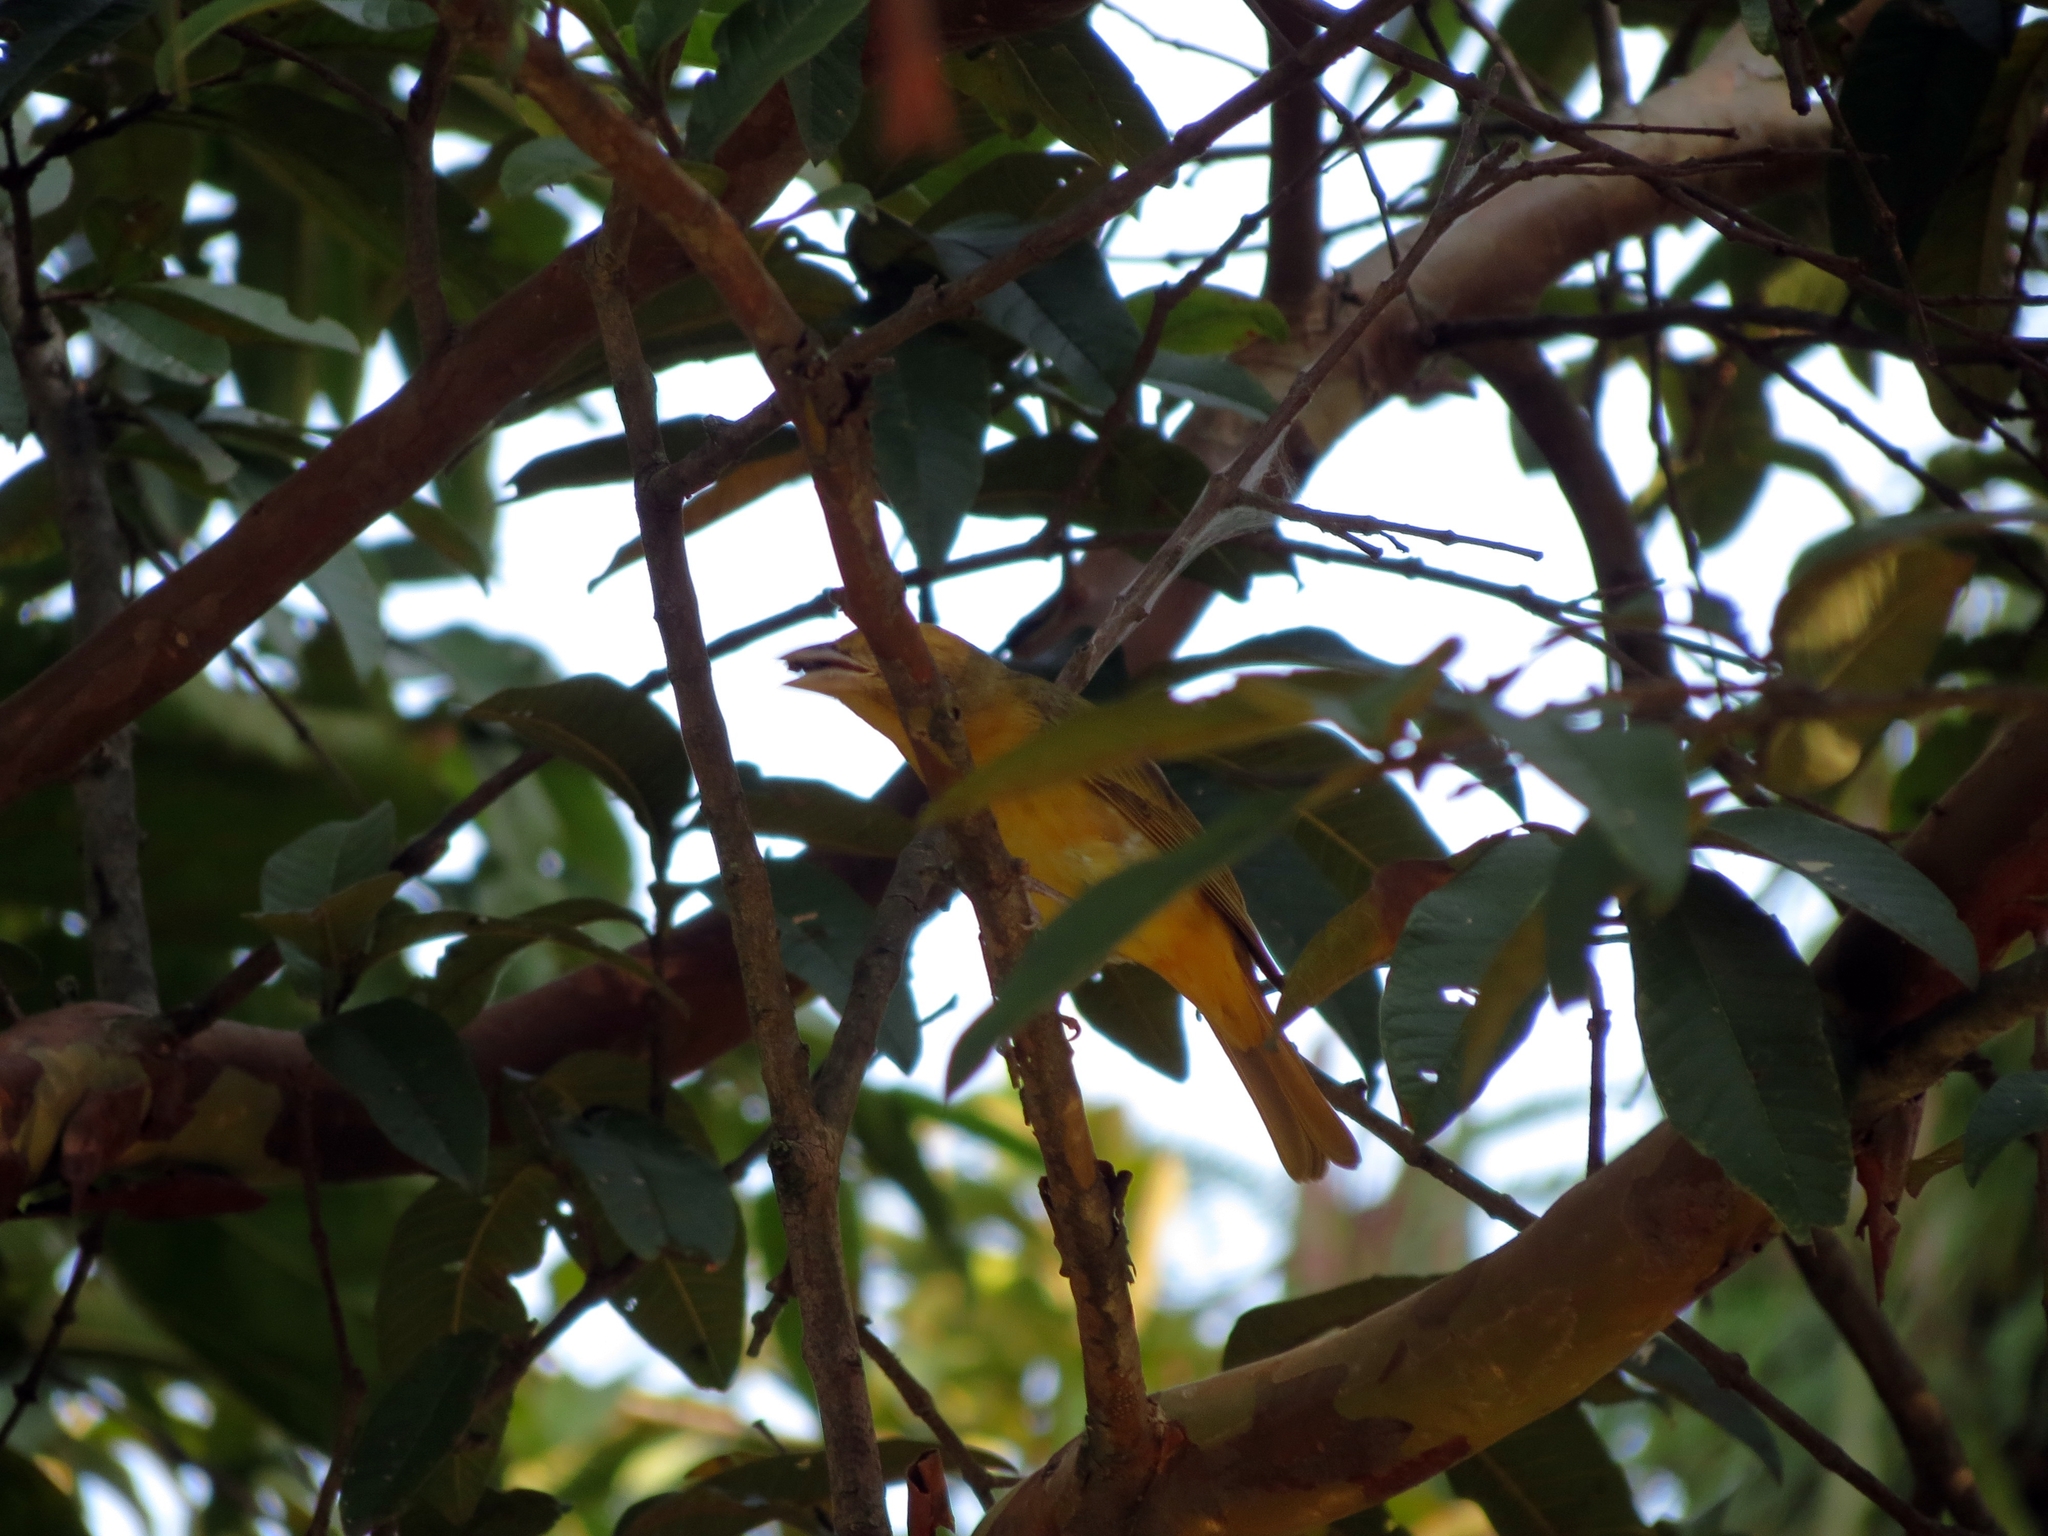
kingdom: Animalia
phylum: Chordata
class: Aves
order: Passeriformes
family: Cardinalidae
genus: Piranga
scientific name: Piranga rubra
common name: Summer tanager
